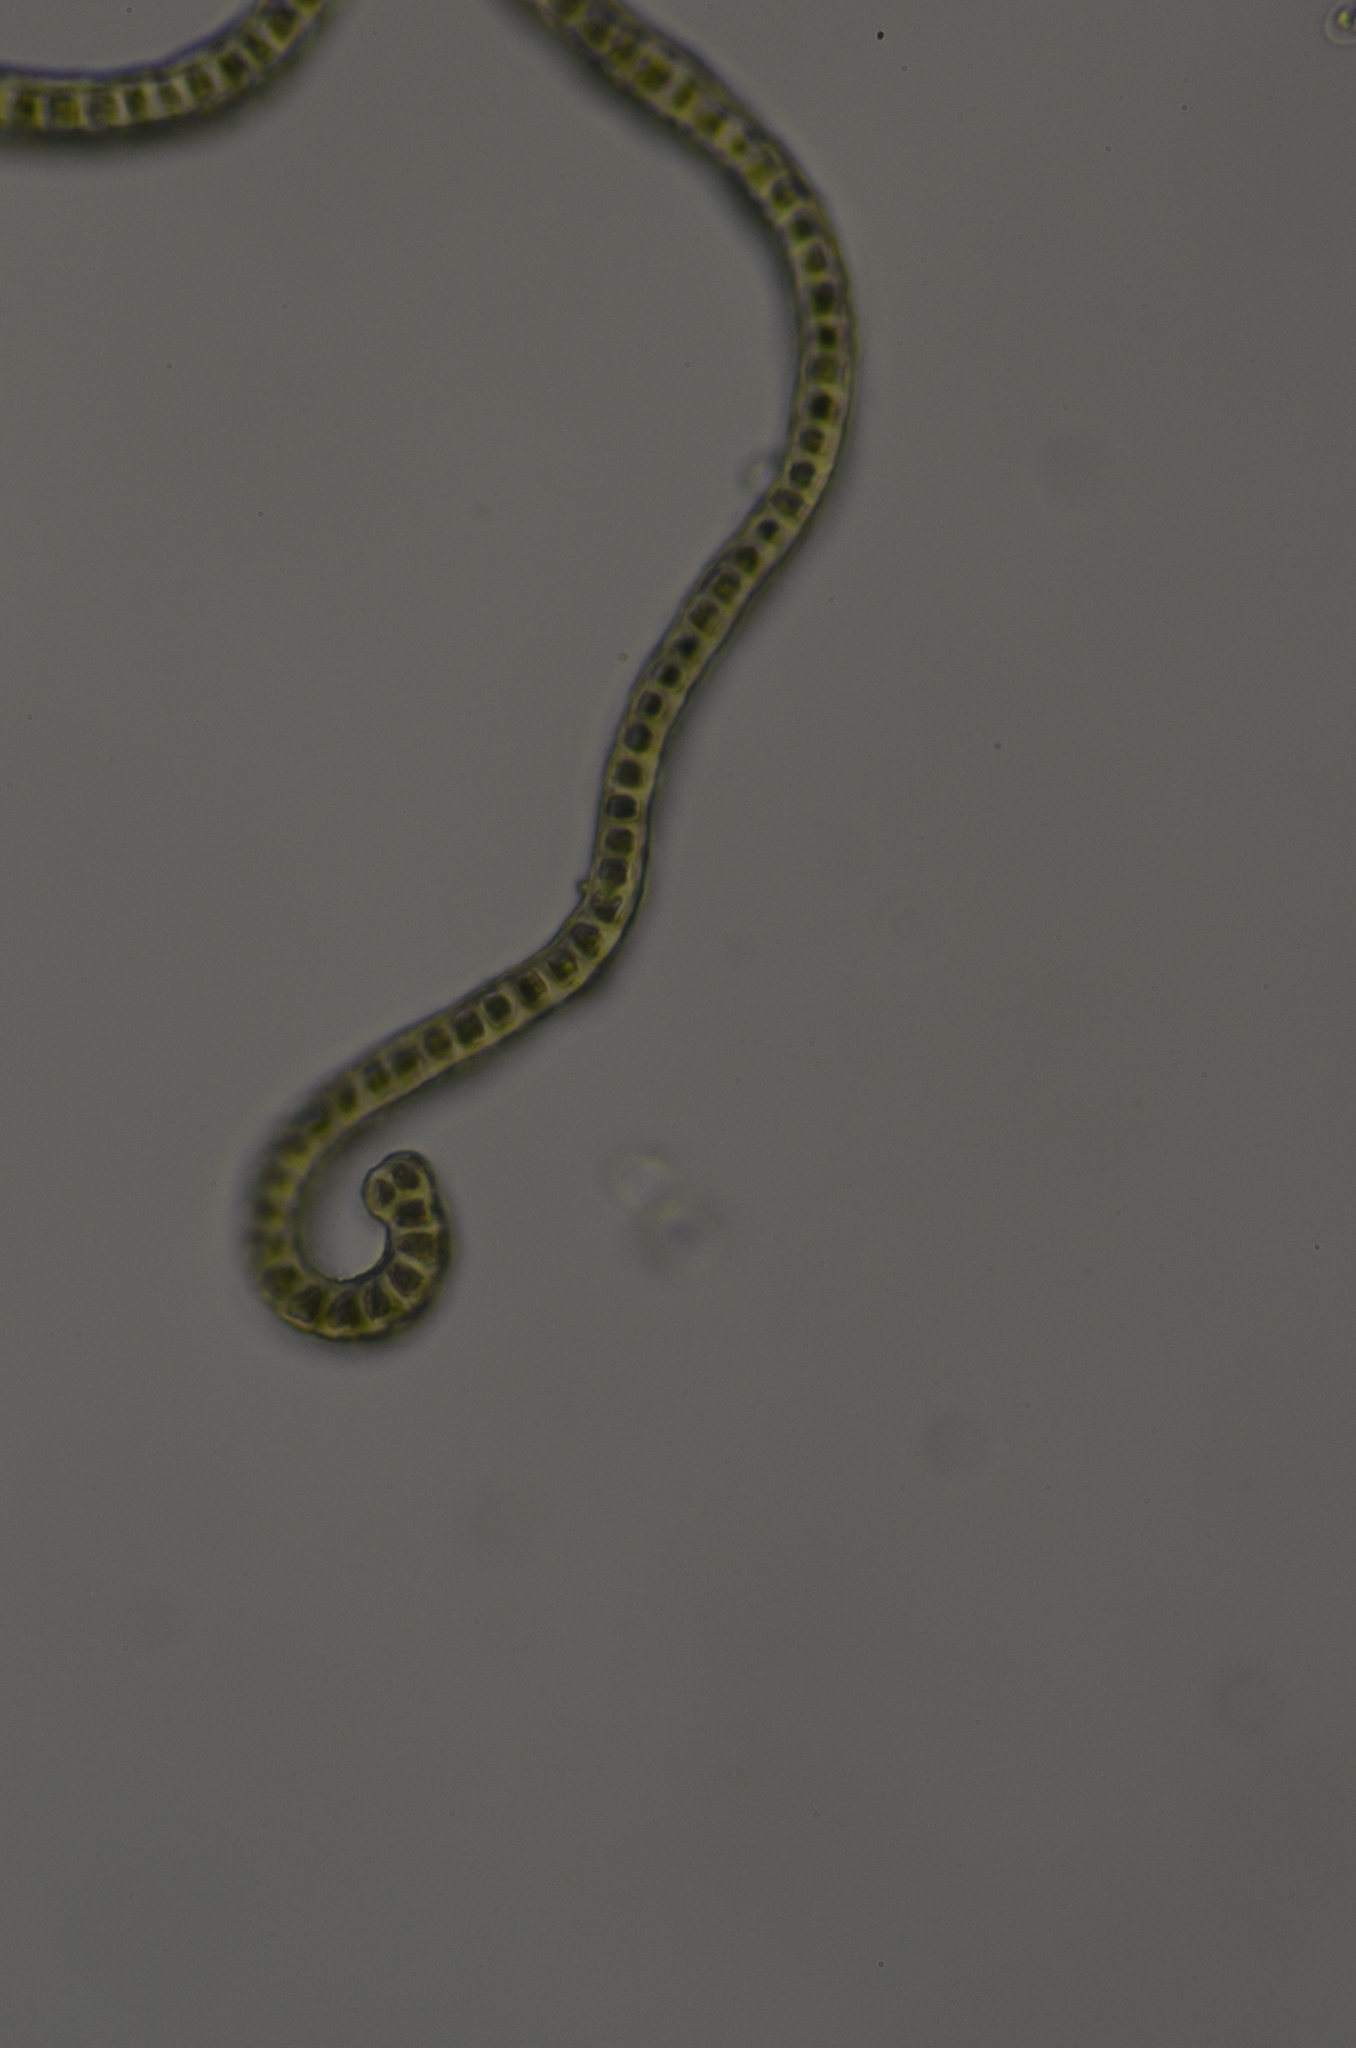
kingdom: Plantae
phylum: Bryophyta
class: Bryopsida
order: Grimmiales
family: Ptychomitriaceae
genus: Ptychomitrium
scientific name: Ptychomitrium gardneri
